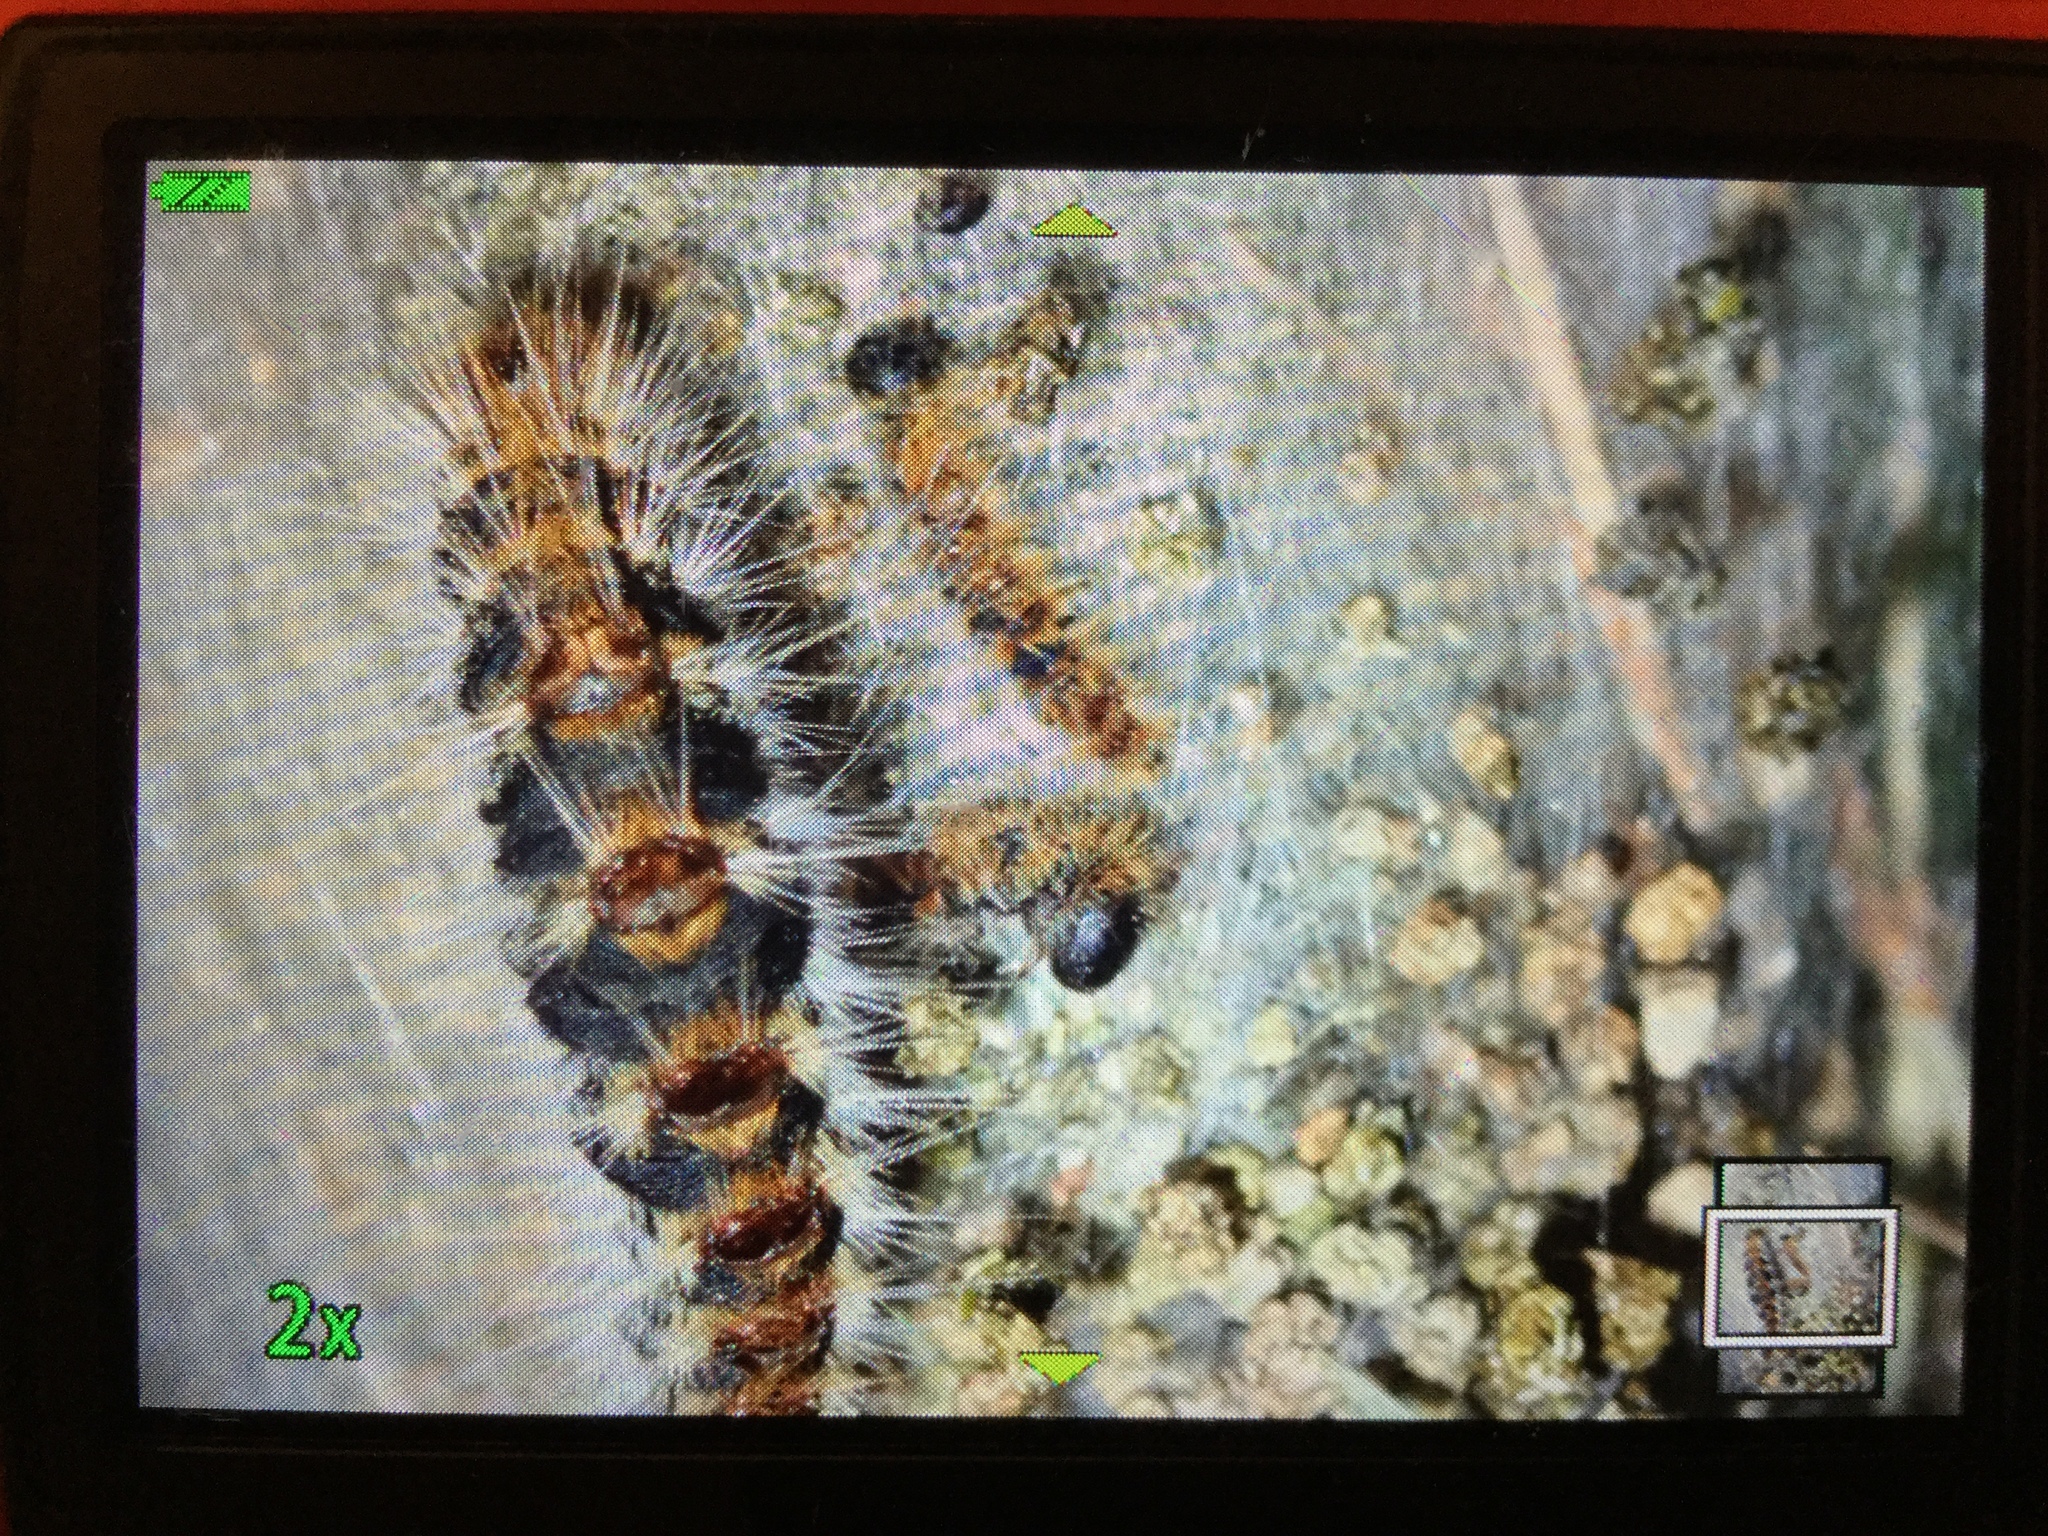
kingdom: Animalia
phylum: Arthropoda
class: Insecta
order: Lepidoptera
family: Notodontidae
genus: Thaumetopoea
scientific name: Thaumetopoea pityocampa
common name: Pine processionary
